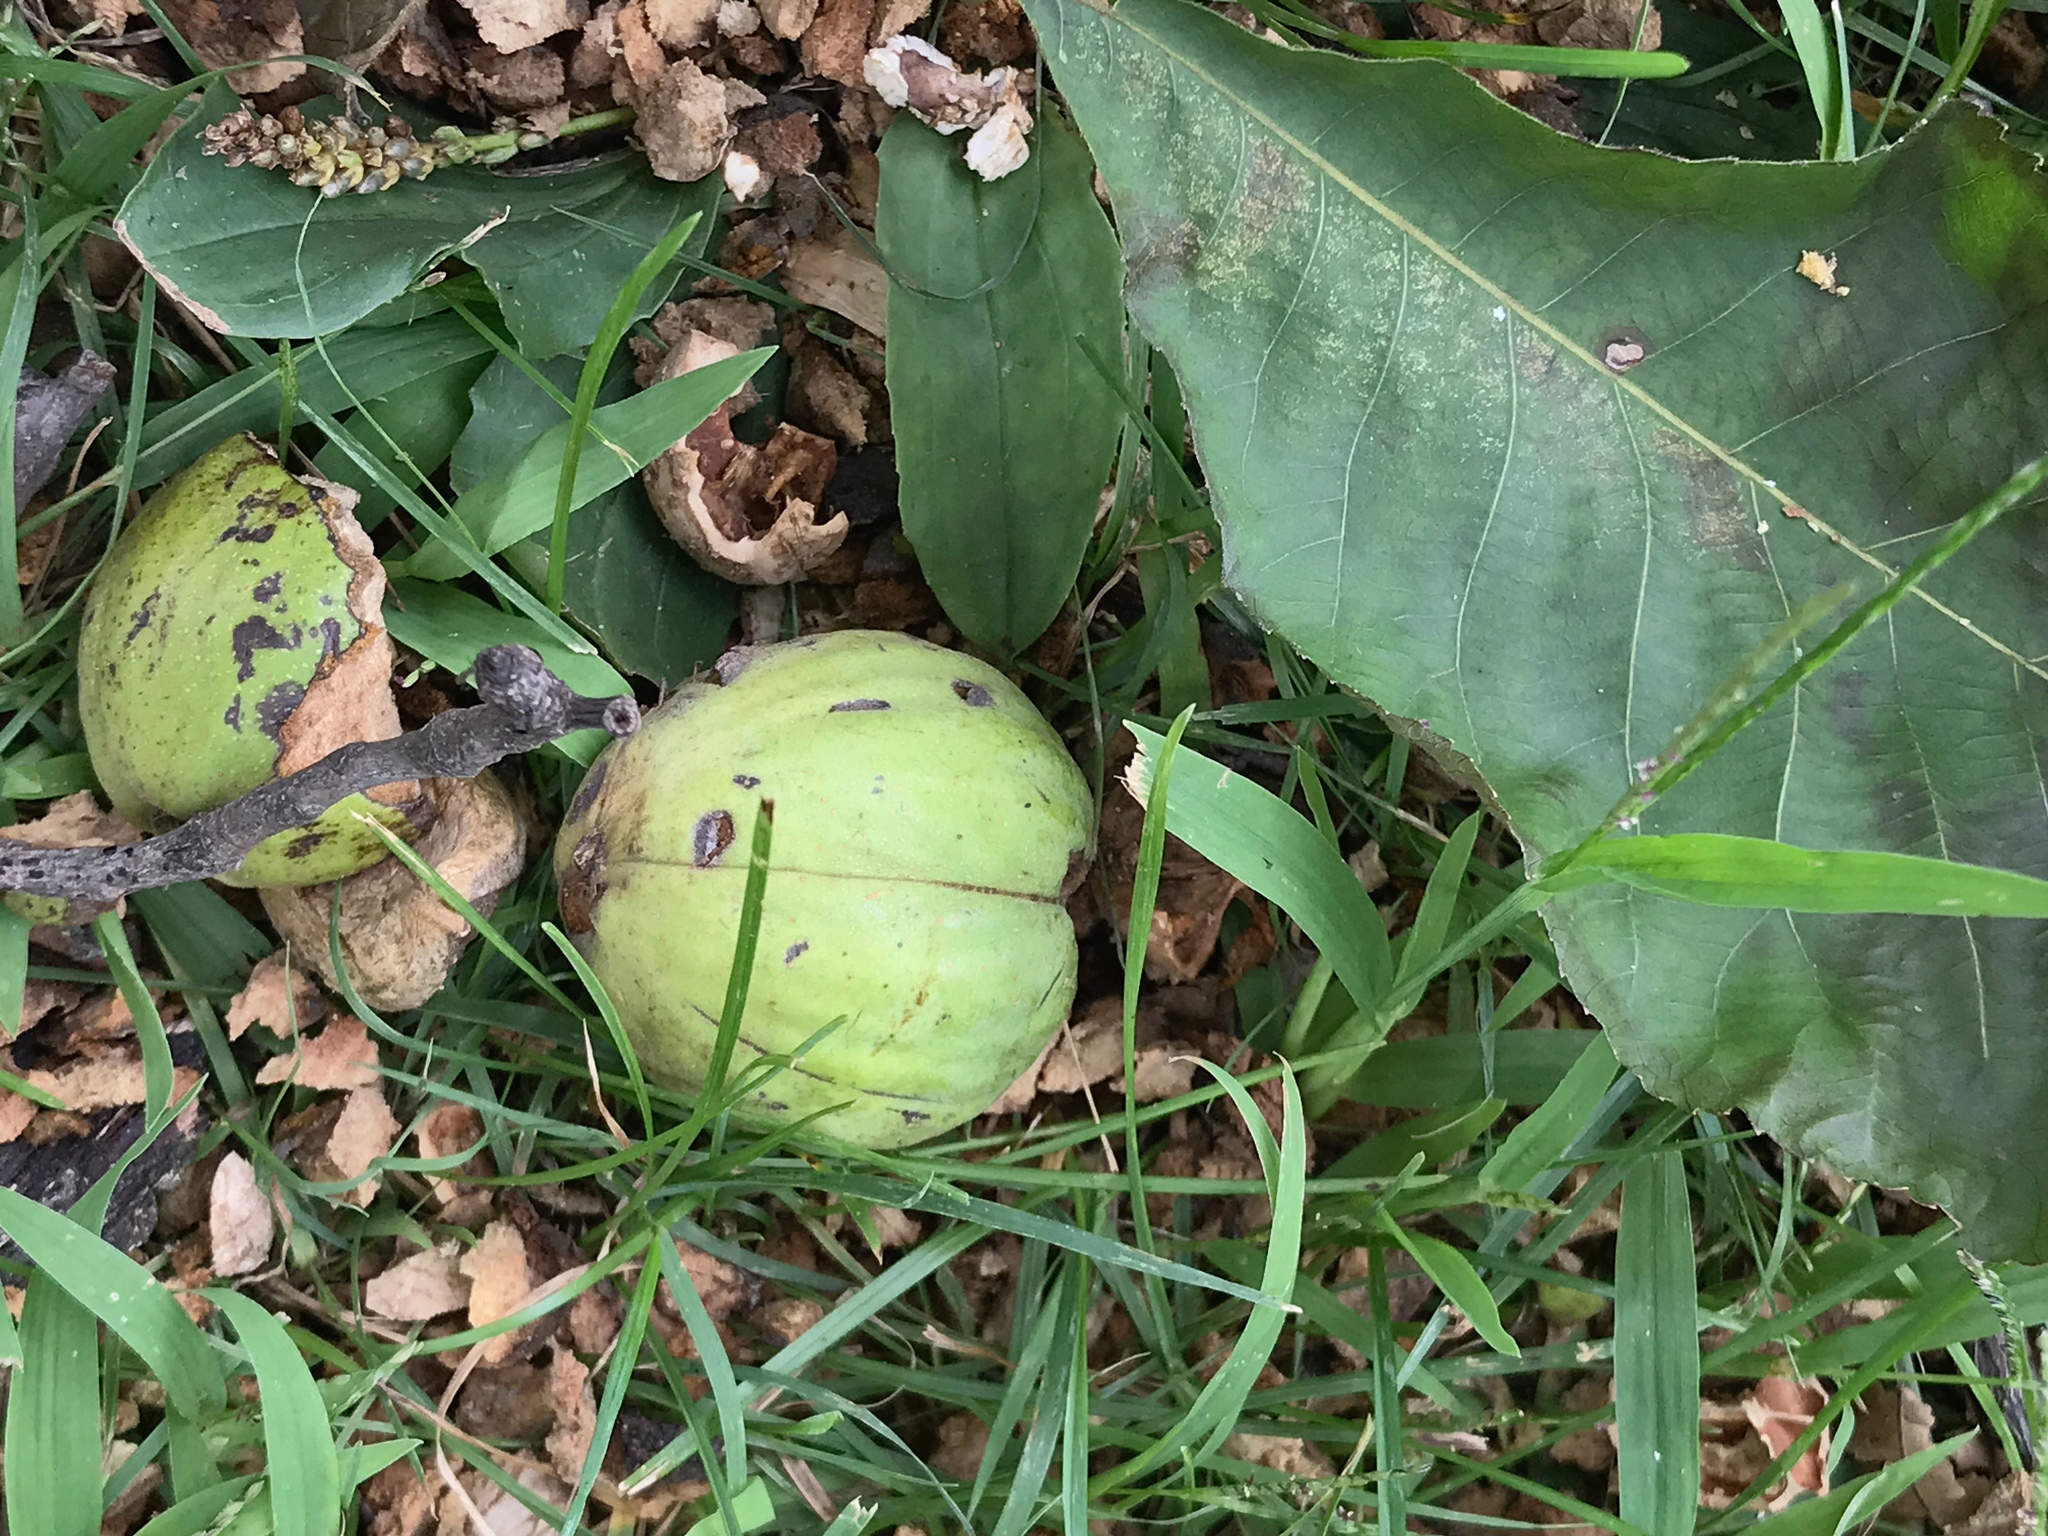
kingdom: Plantae
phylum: Tracheophyta
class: Magnoliopsida
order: Fagales
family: Juglandaceae
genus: Carya
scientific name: Carya ovata
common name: Shagbark hickory
